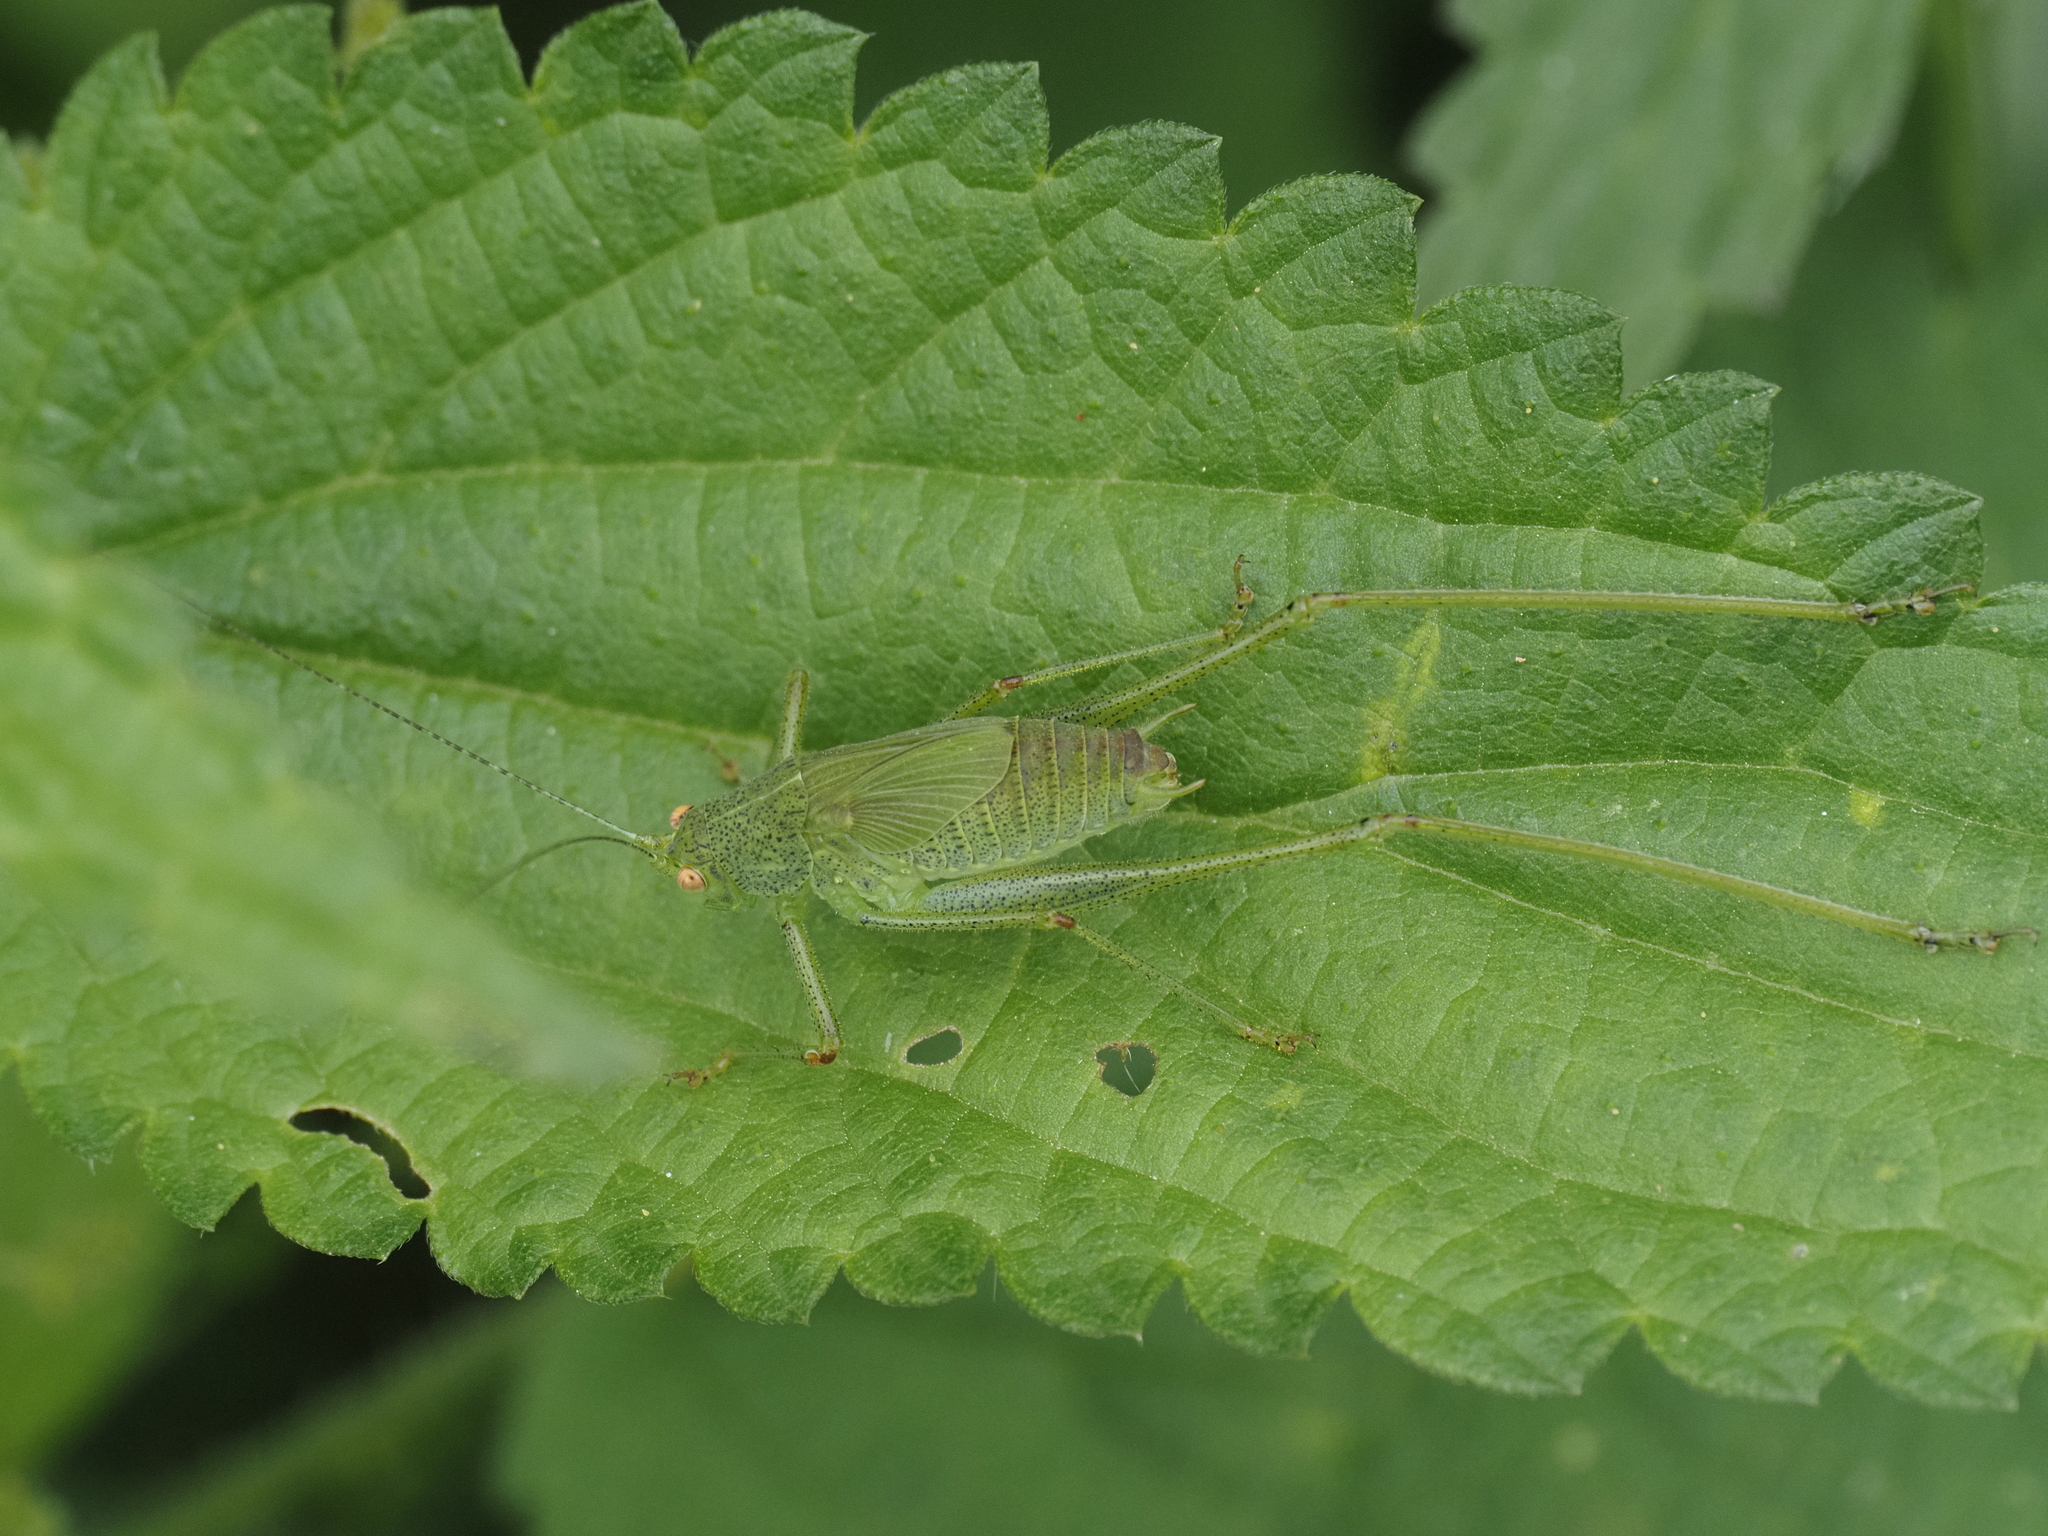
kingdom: Animalia
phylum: Arthropoda
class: Insecta
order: Orthoptera
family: Tettigoniidae
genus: Phaneroptera
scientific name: Phaneroptera nana
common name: Southern sickle bush-cricket
